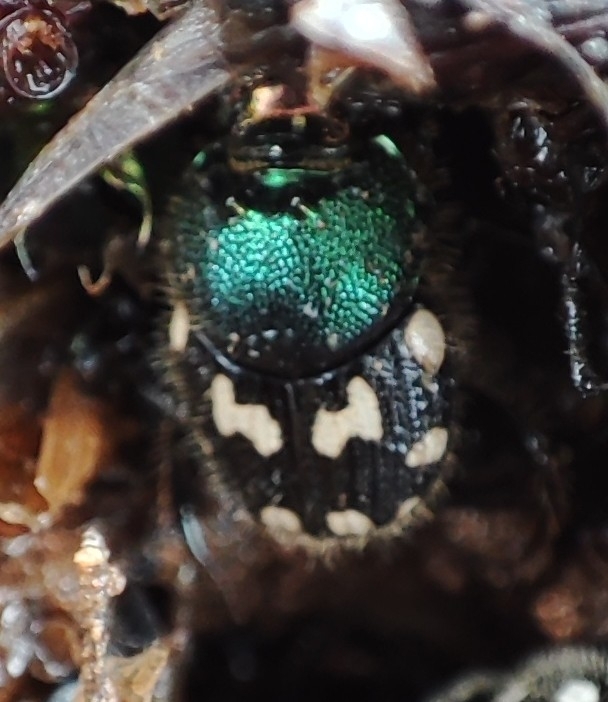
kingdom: Animalia
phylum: Arthropoda
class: Insecta
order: Coleoptera
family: Scarabaeidae
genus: Onthophagus
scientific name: Onthophagus kchatriya
